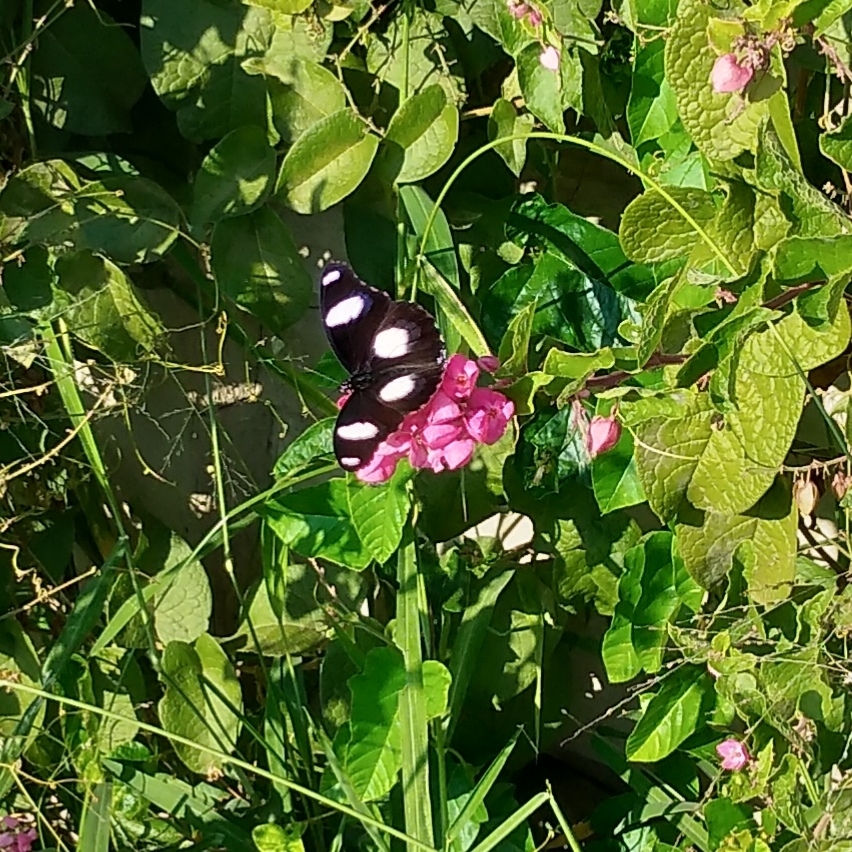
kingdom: Animalia
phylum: Arthropoda
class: Insecta
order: Lepidoptera
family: Nymphalidae
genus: Hypolimnas
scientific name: Hypolimnas misippus
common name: False plain tiger
